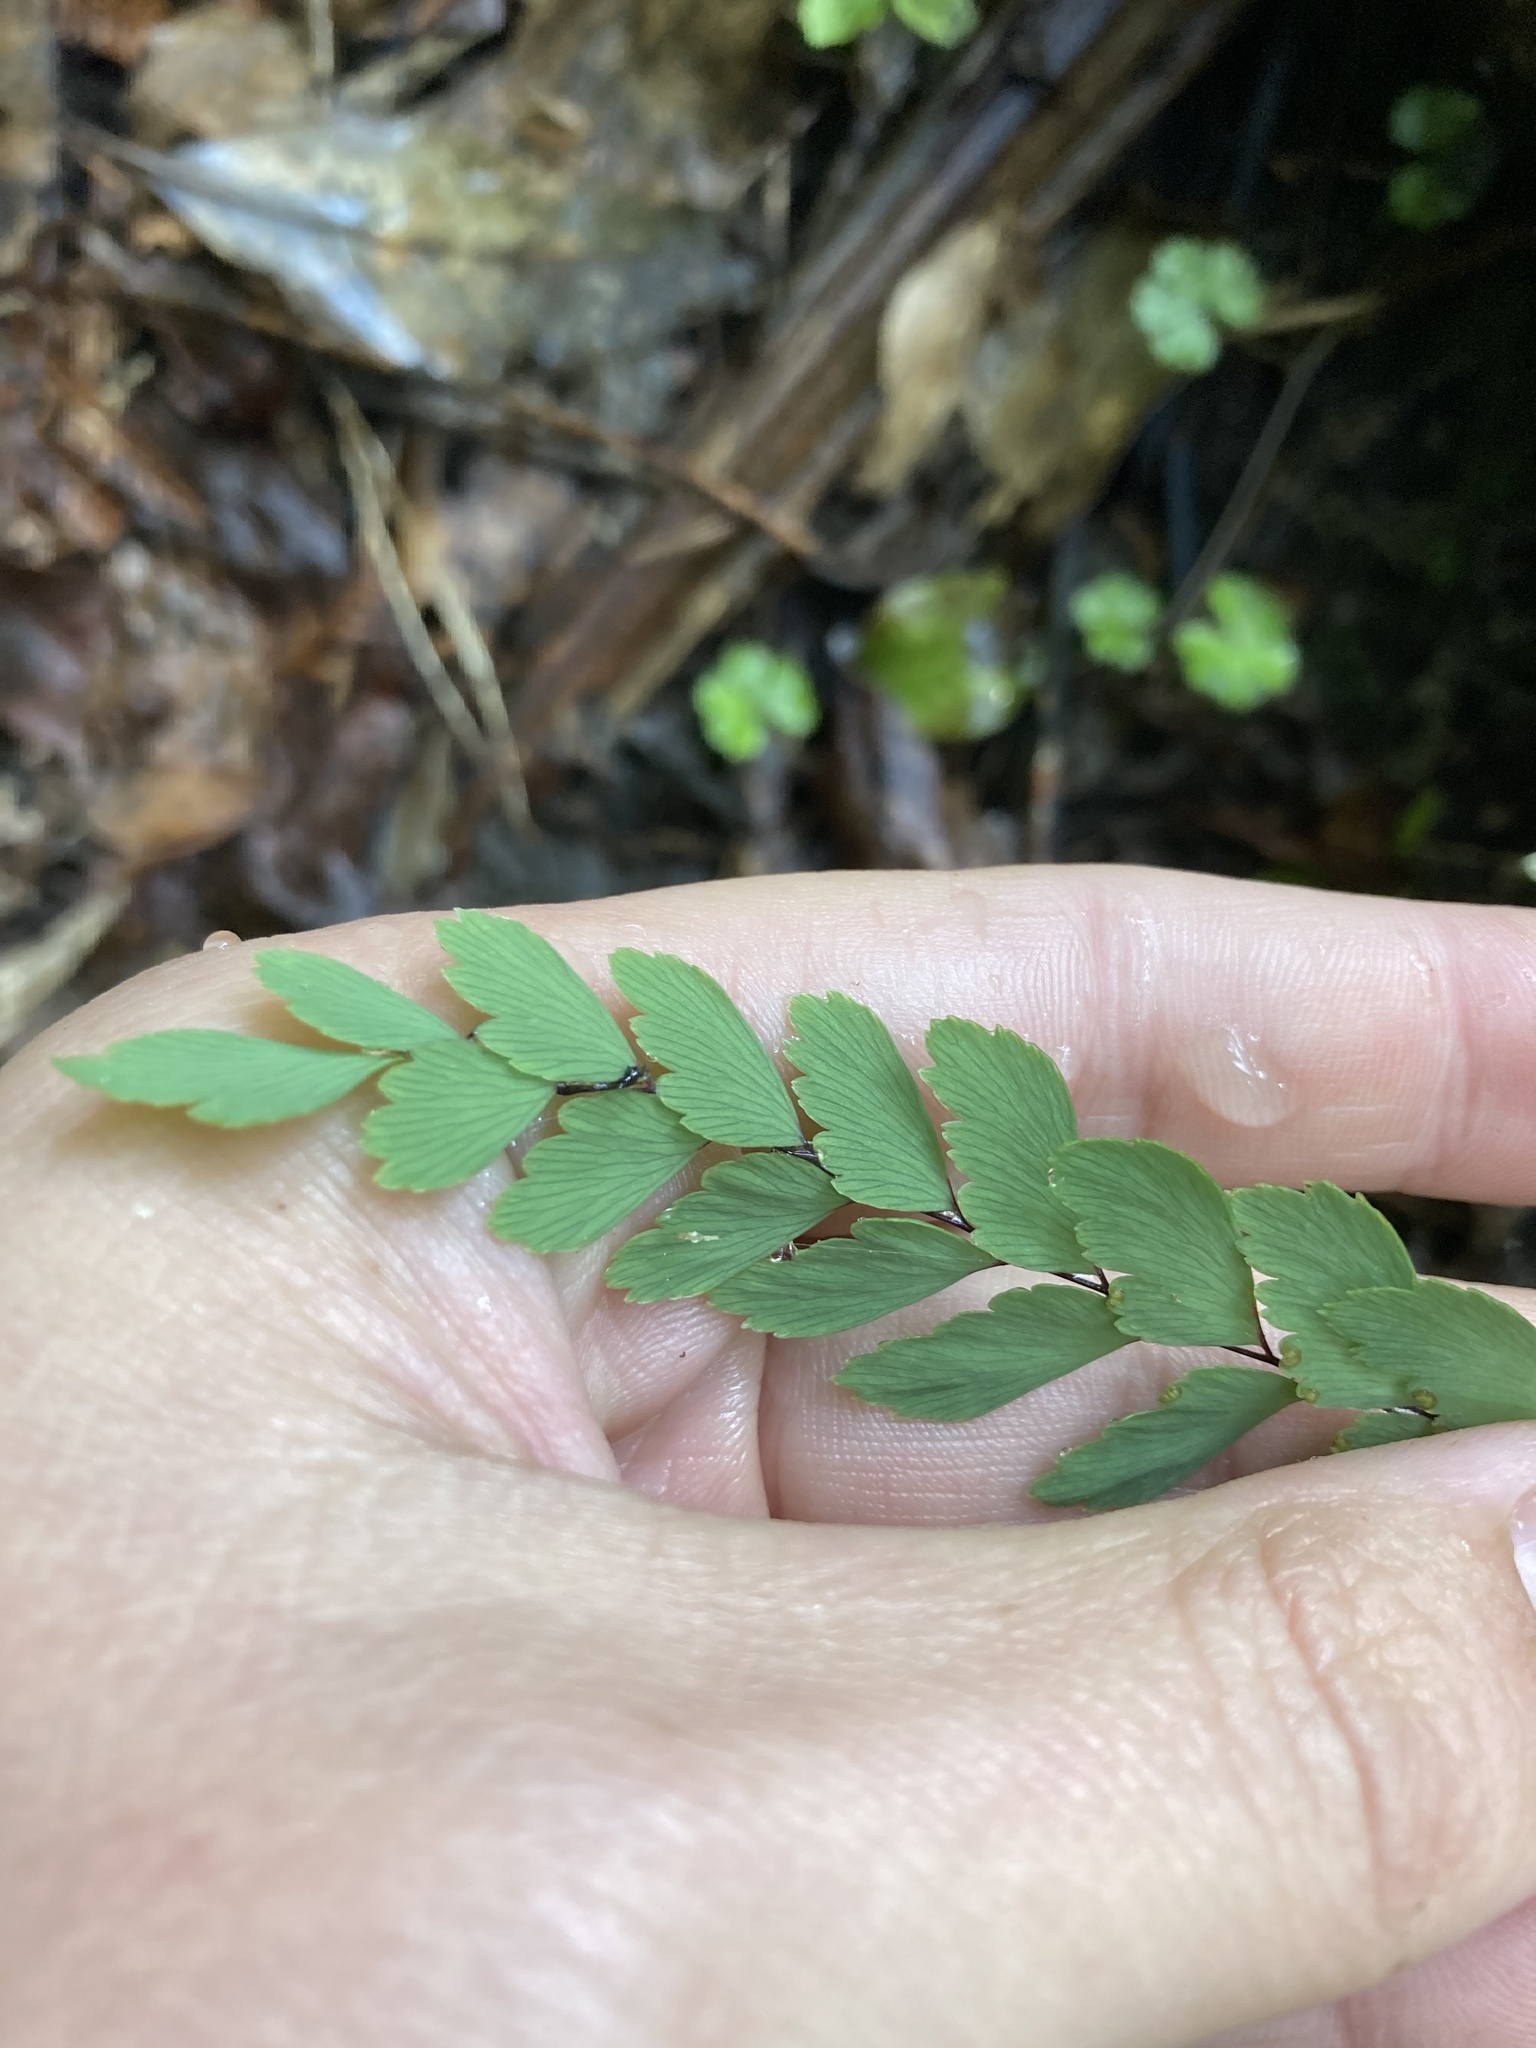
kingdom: Plantae
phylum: Tracheophyta
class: Polypodiopsida
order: Polypodiales
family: Pteridaceae
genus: Adiantum
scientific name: Adiantum cunninghamii
